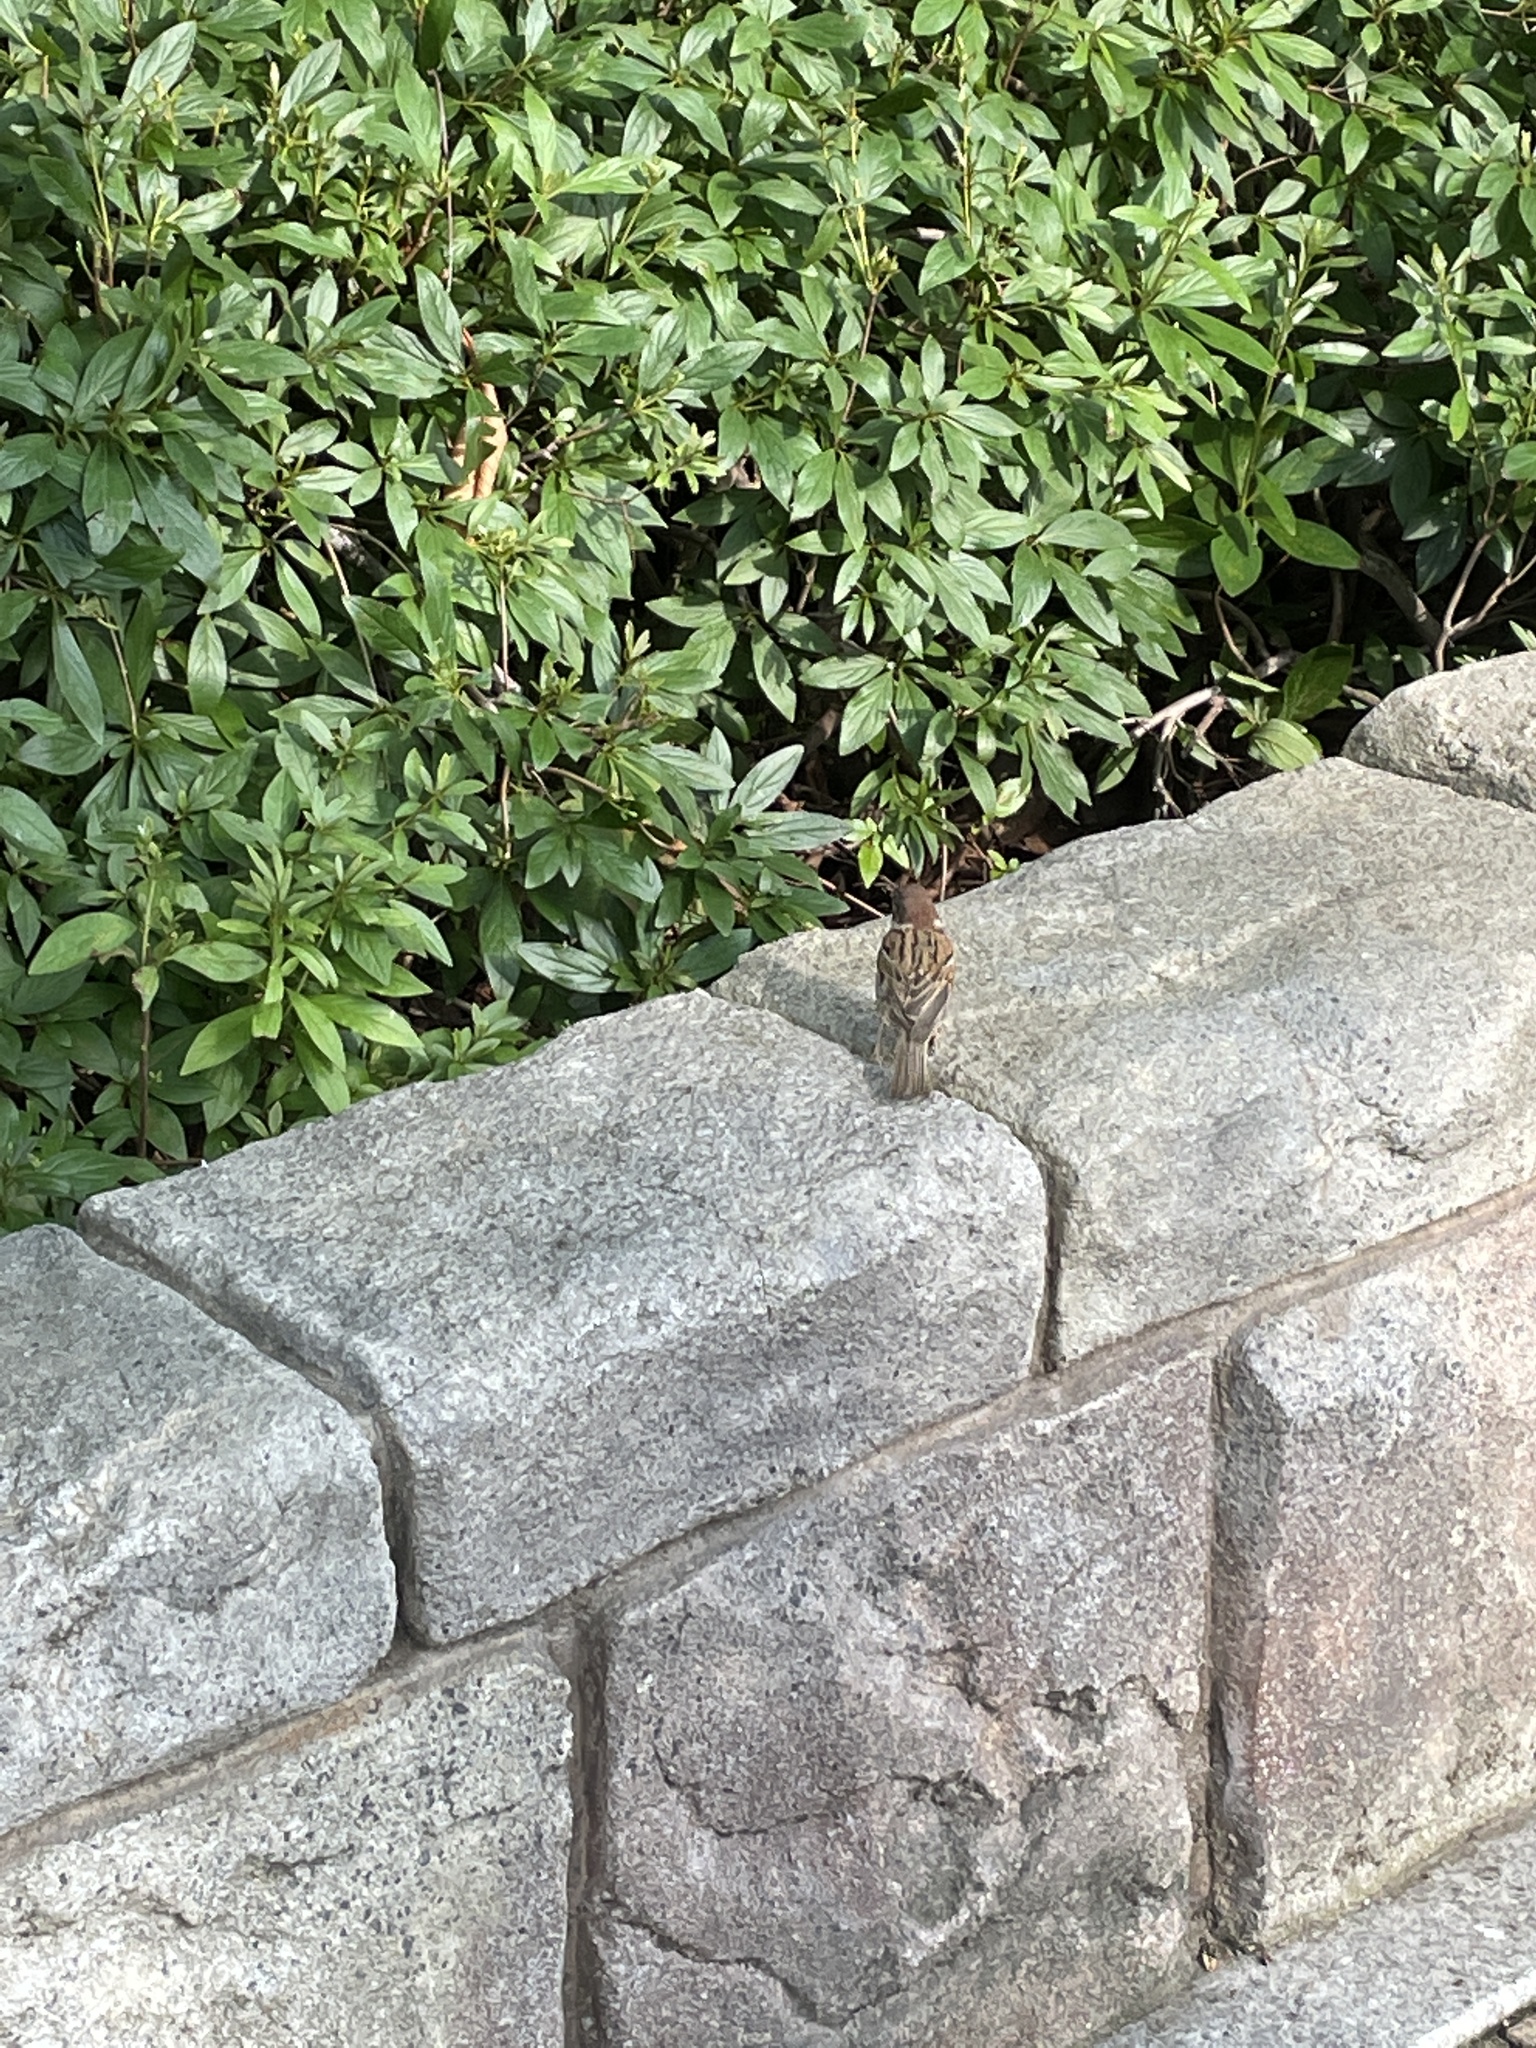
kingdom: Animalia
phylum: Chordata
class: Aves
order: Passeriformes
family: Passeridae
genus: Passer
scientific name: Passer montanus
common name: Eurasian tree sparrow
